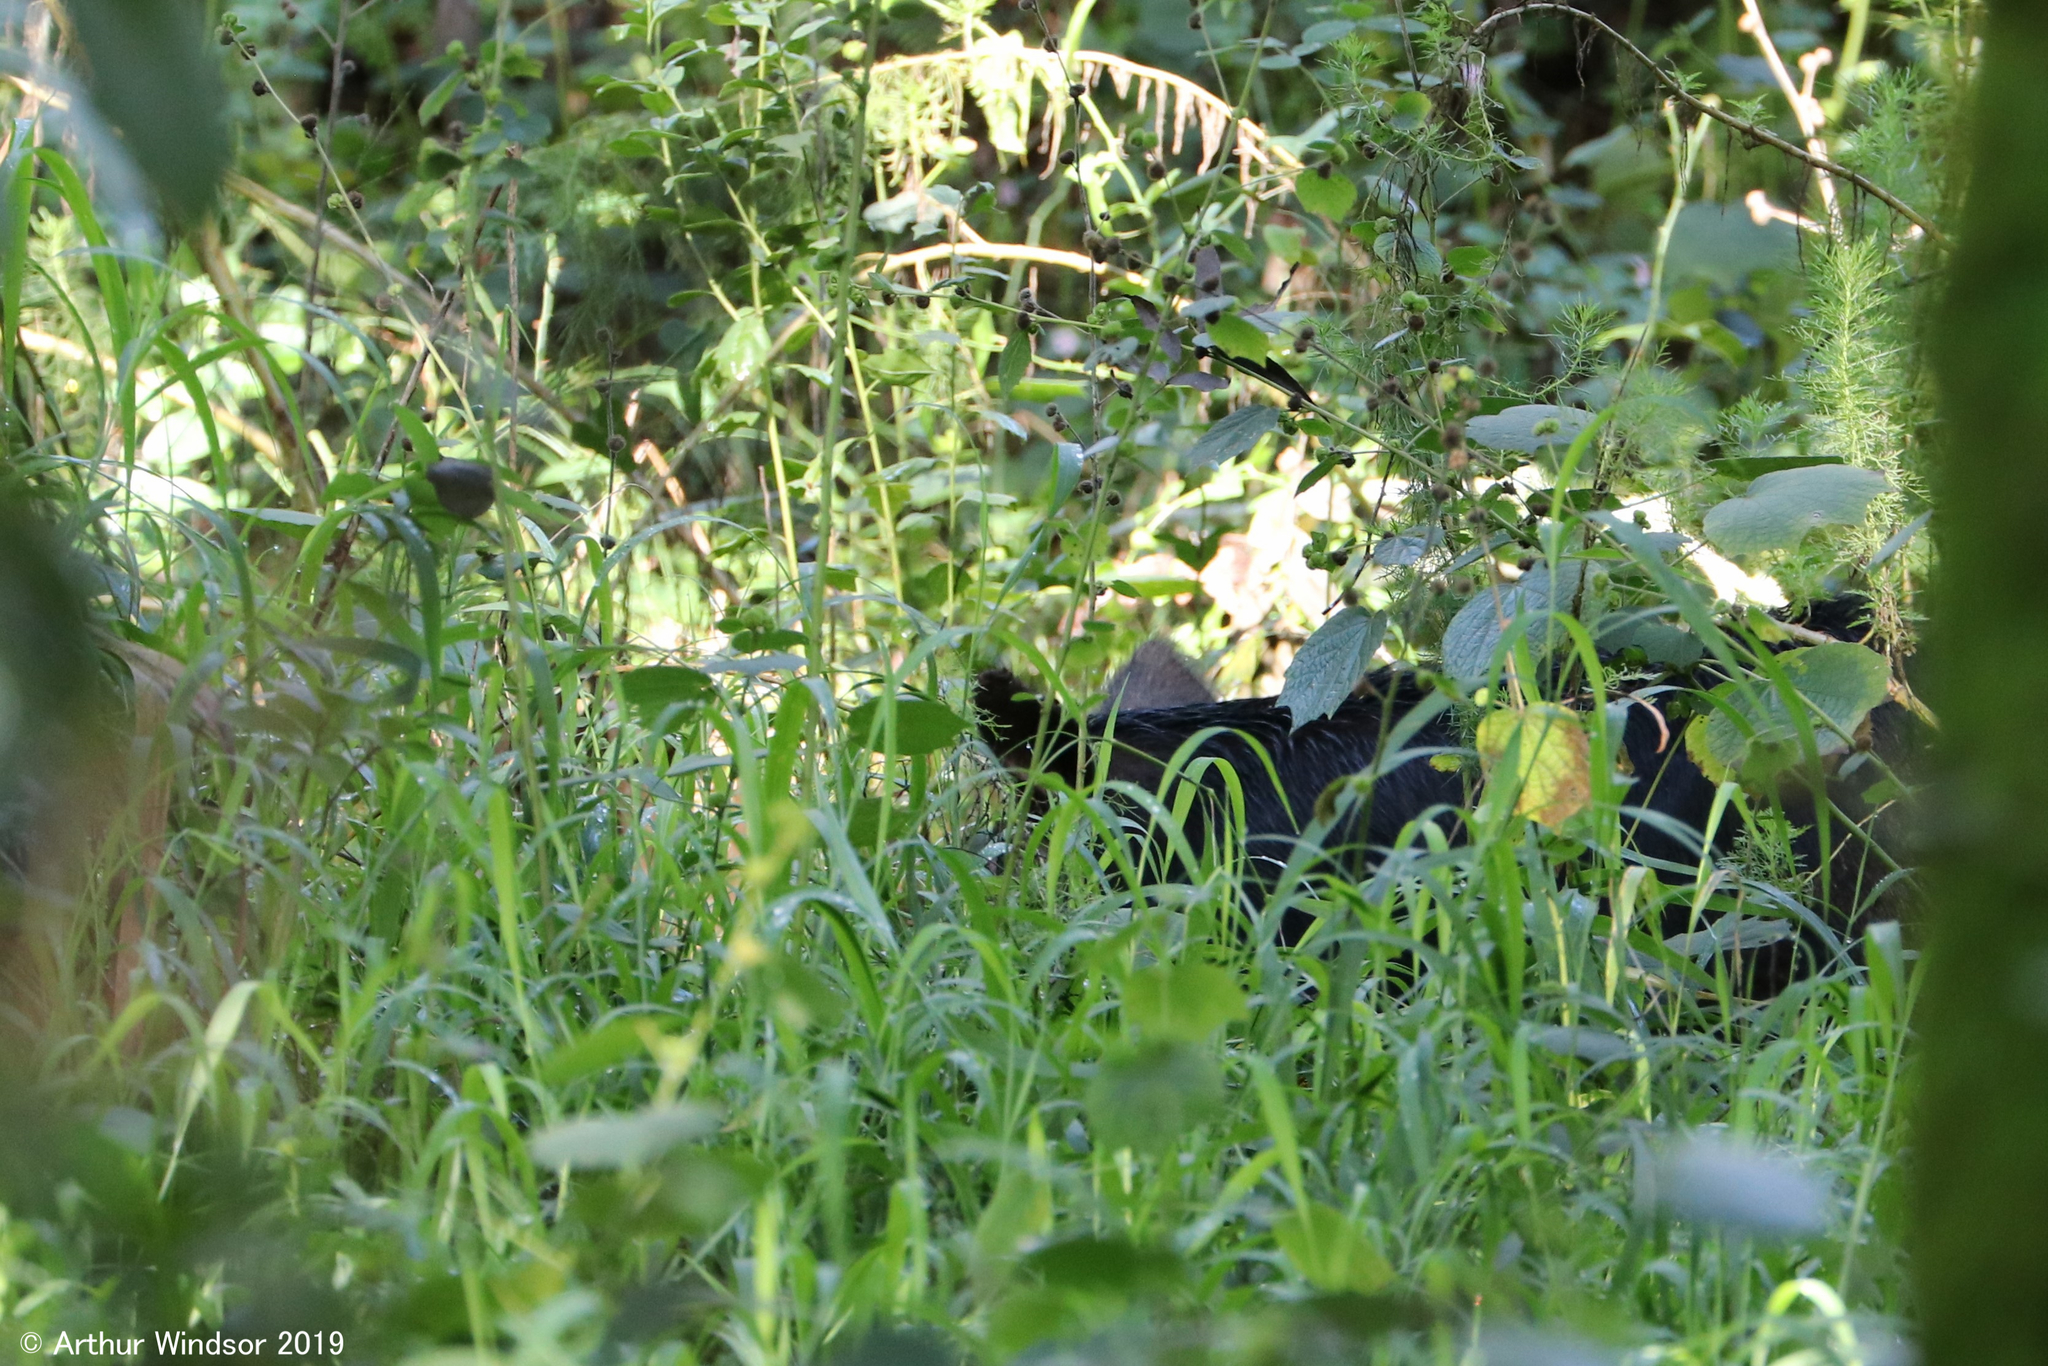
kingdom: Animalia
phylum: Chordata
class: Mammalia
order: Artiodactyla
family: Suidae
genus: Sus
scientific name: Sus scrofa
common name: Wild boar
